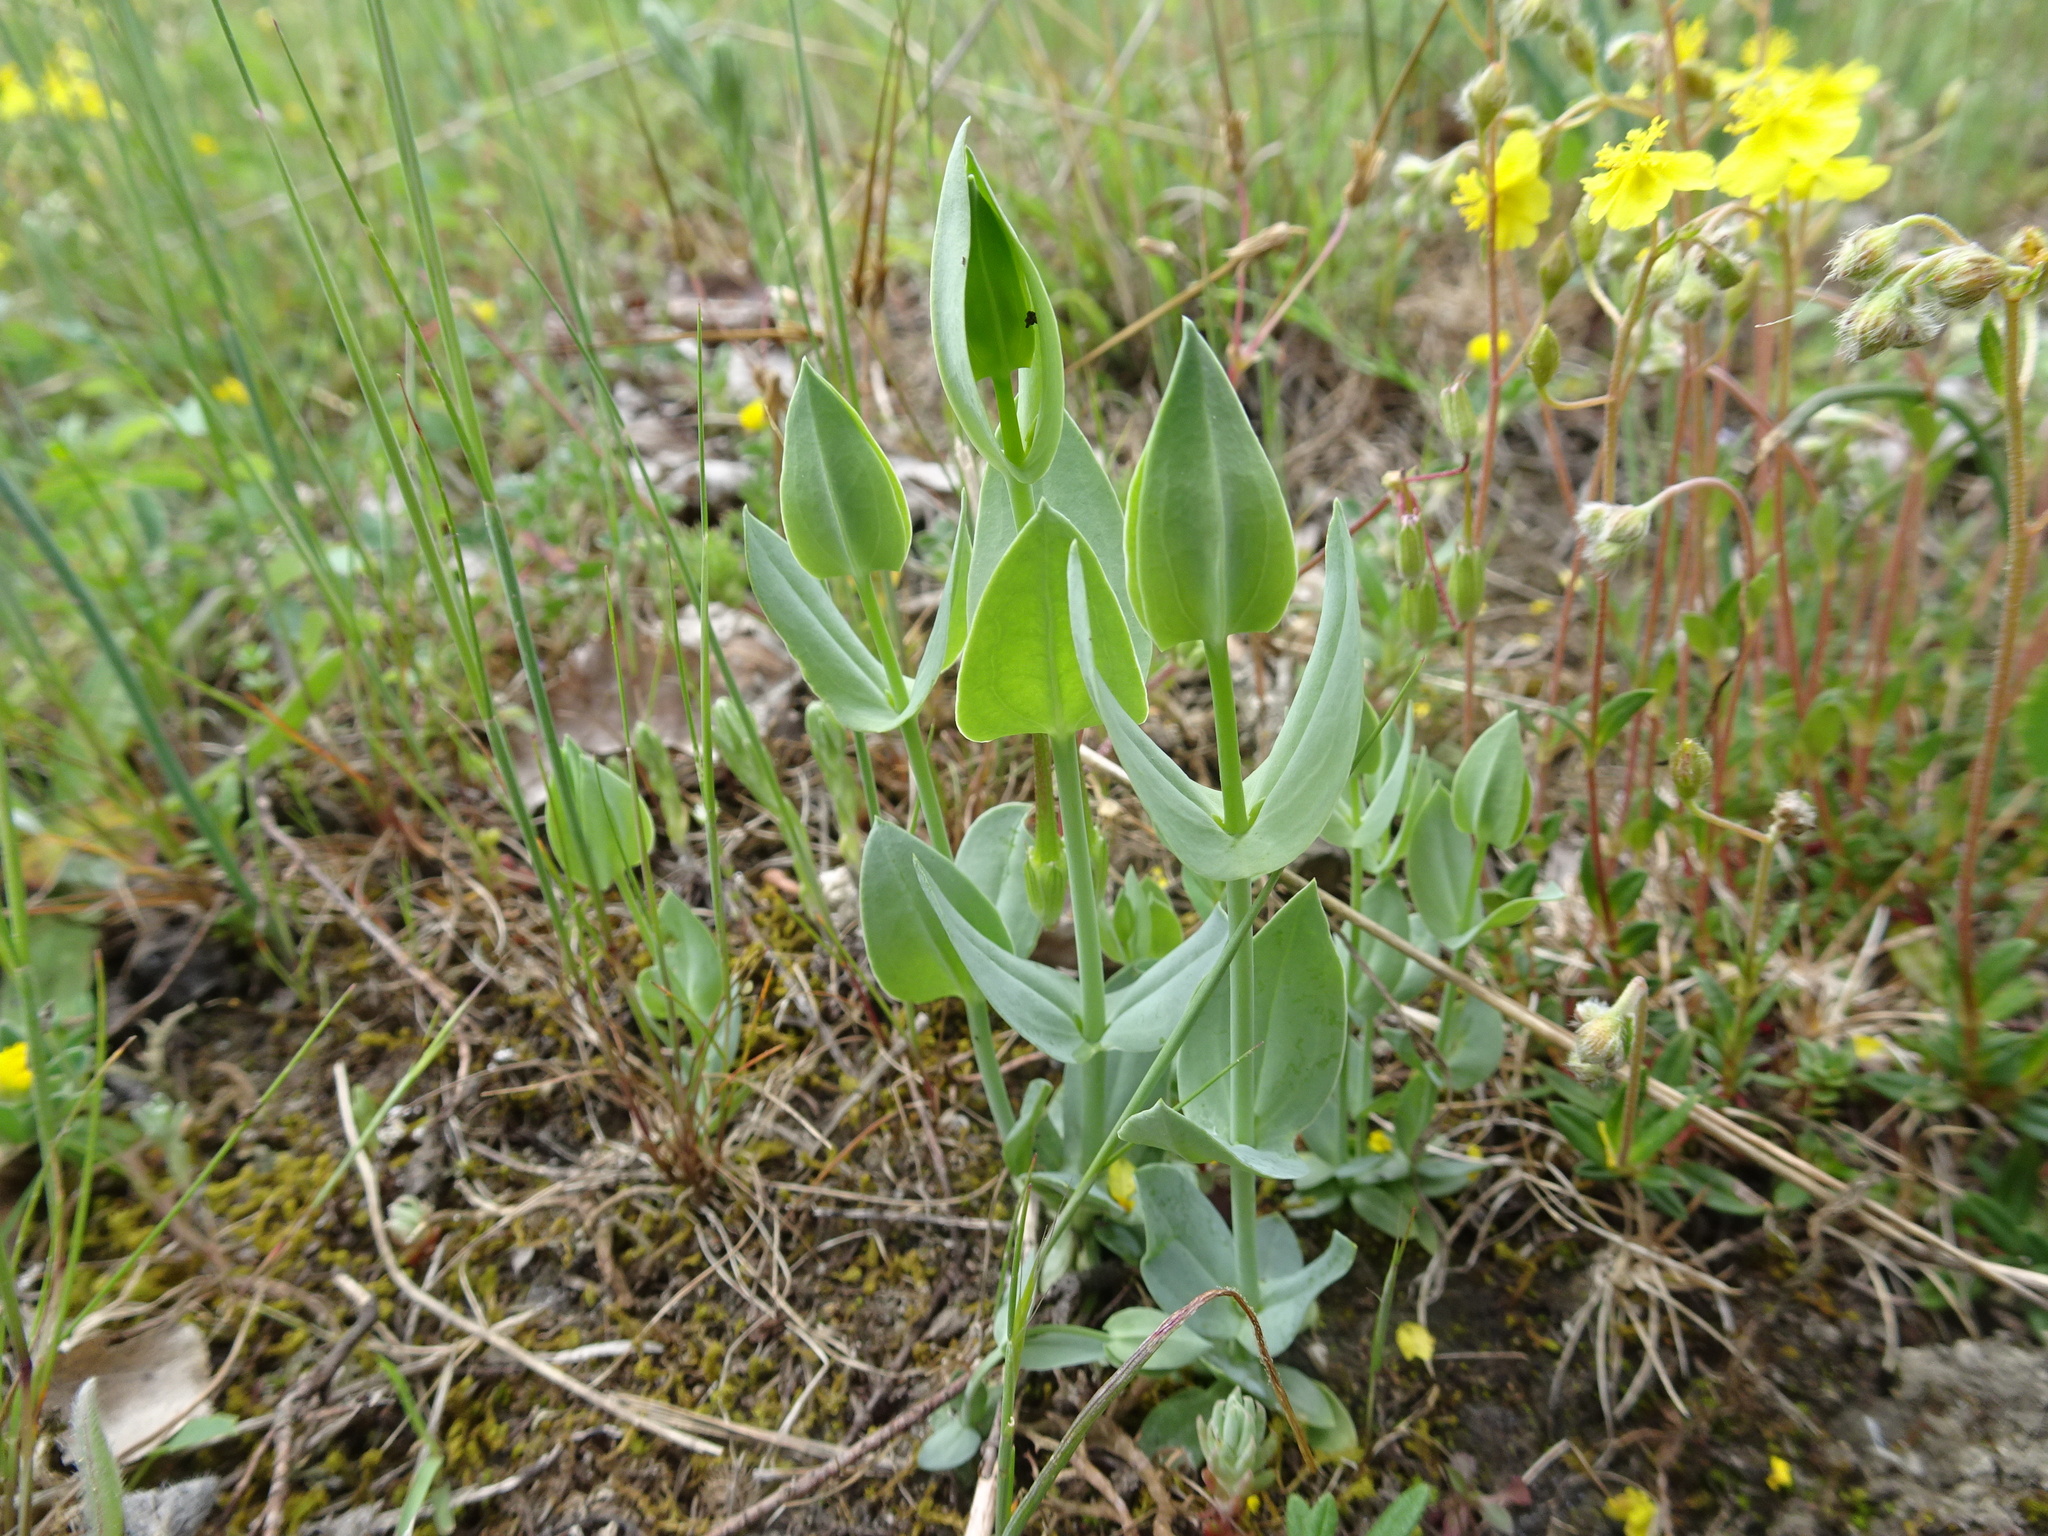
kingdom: Plantae
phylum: Tracheophyta
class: Magnoliopsida
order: Gentianales
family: Gentianaceae
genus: Blackstonia
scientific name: Blackstonia perfoliata
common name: Yellow-wort
